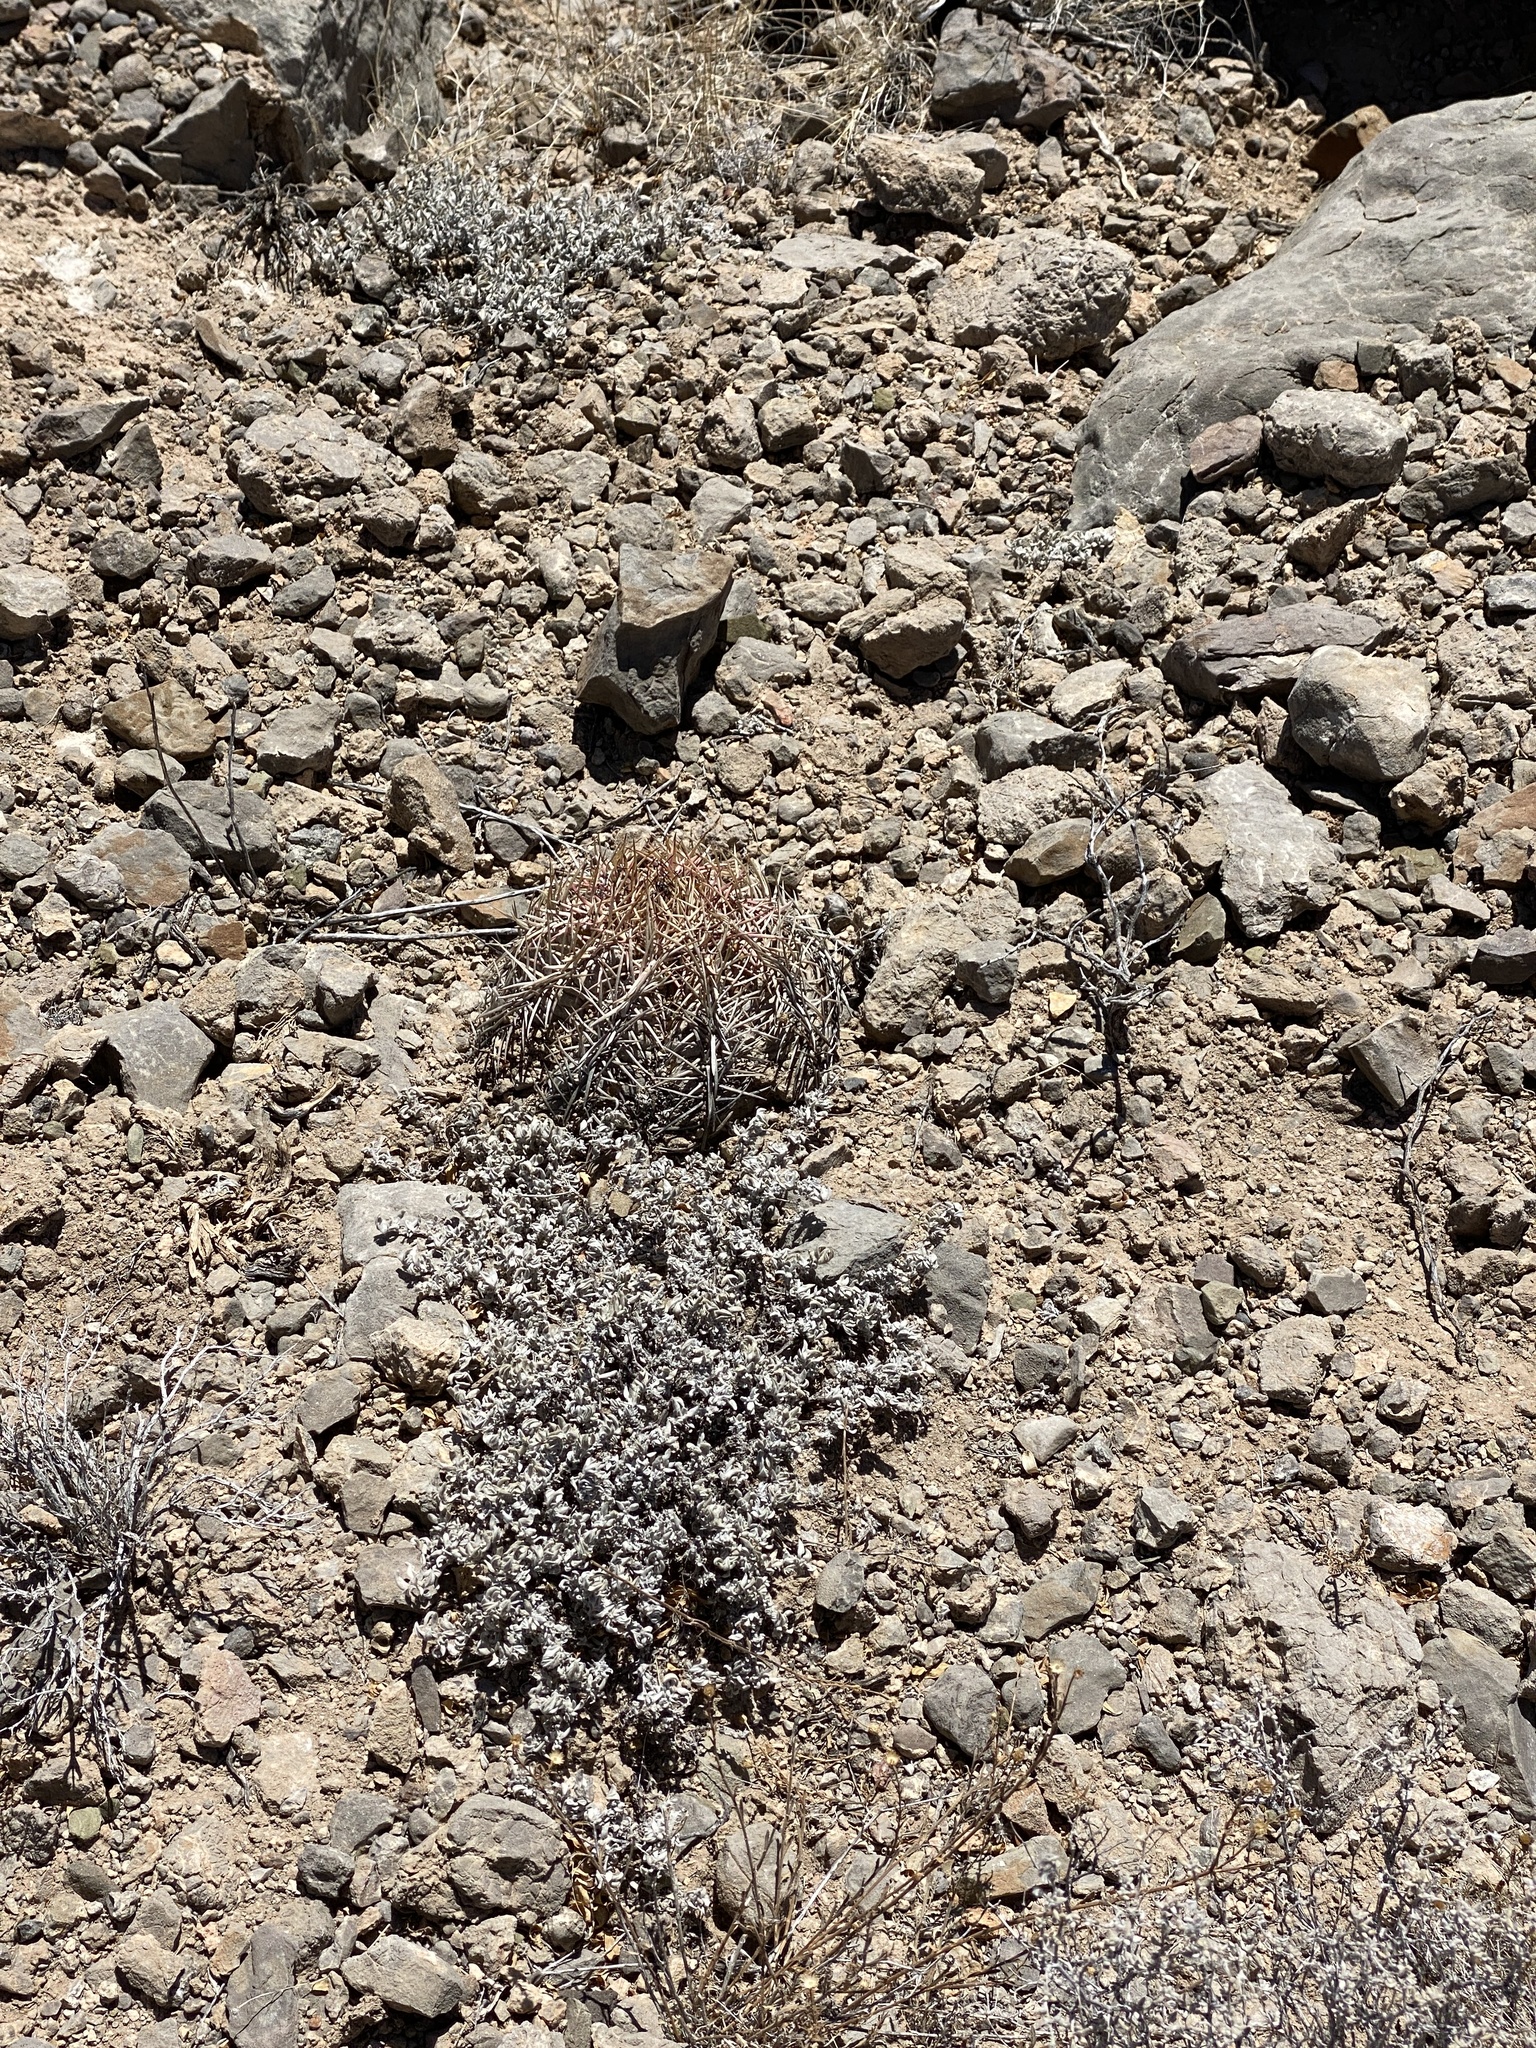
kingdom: Plantae
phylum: Tracheophyta
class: Magnoliopsida
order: Caryophyllales
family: Cactaceae
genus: Echinocactus
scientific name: Echinocactus horizonthalonius
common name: Devilshead
